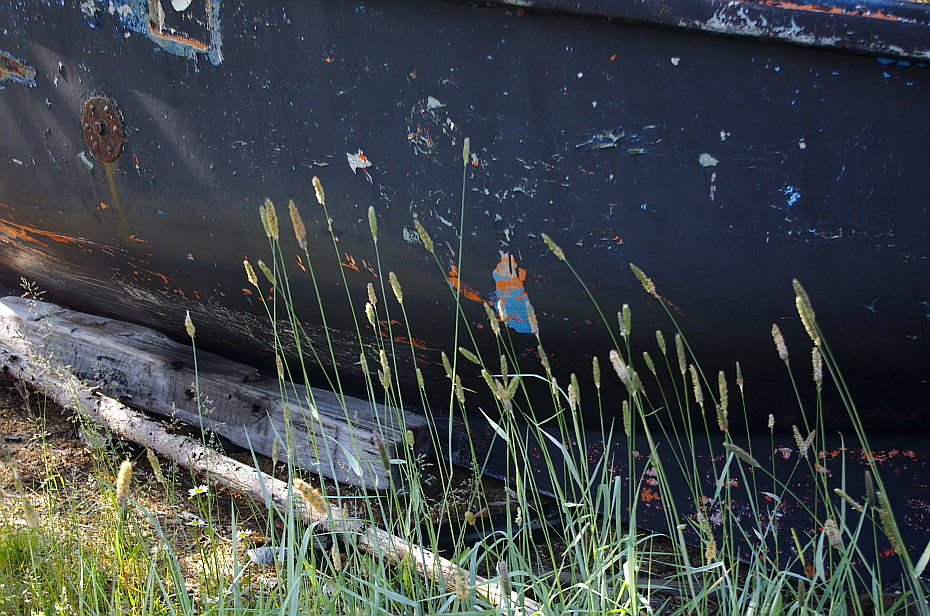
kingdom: Plantae
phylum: Tracheophyta
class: Liliopsida
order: Poales
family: Poaceae
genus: Alopecurus
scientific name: Alopecurus arundinaceus
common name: Creeping meadow foxtail
